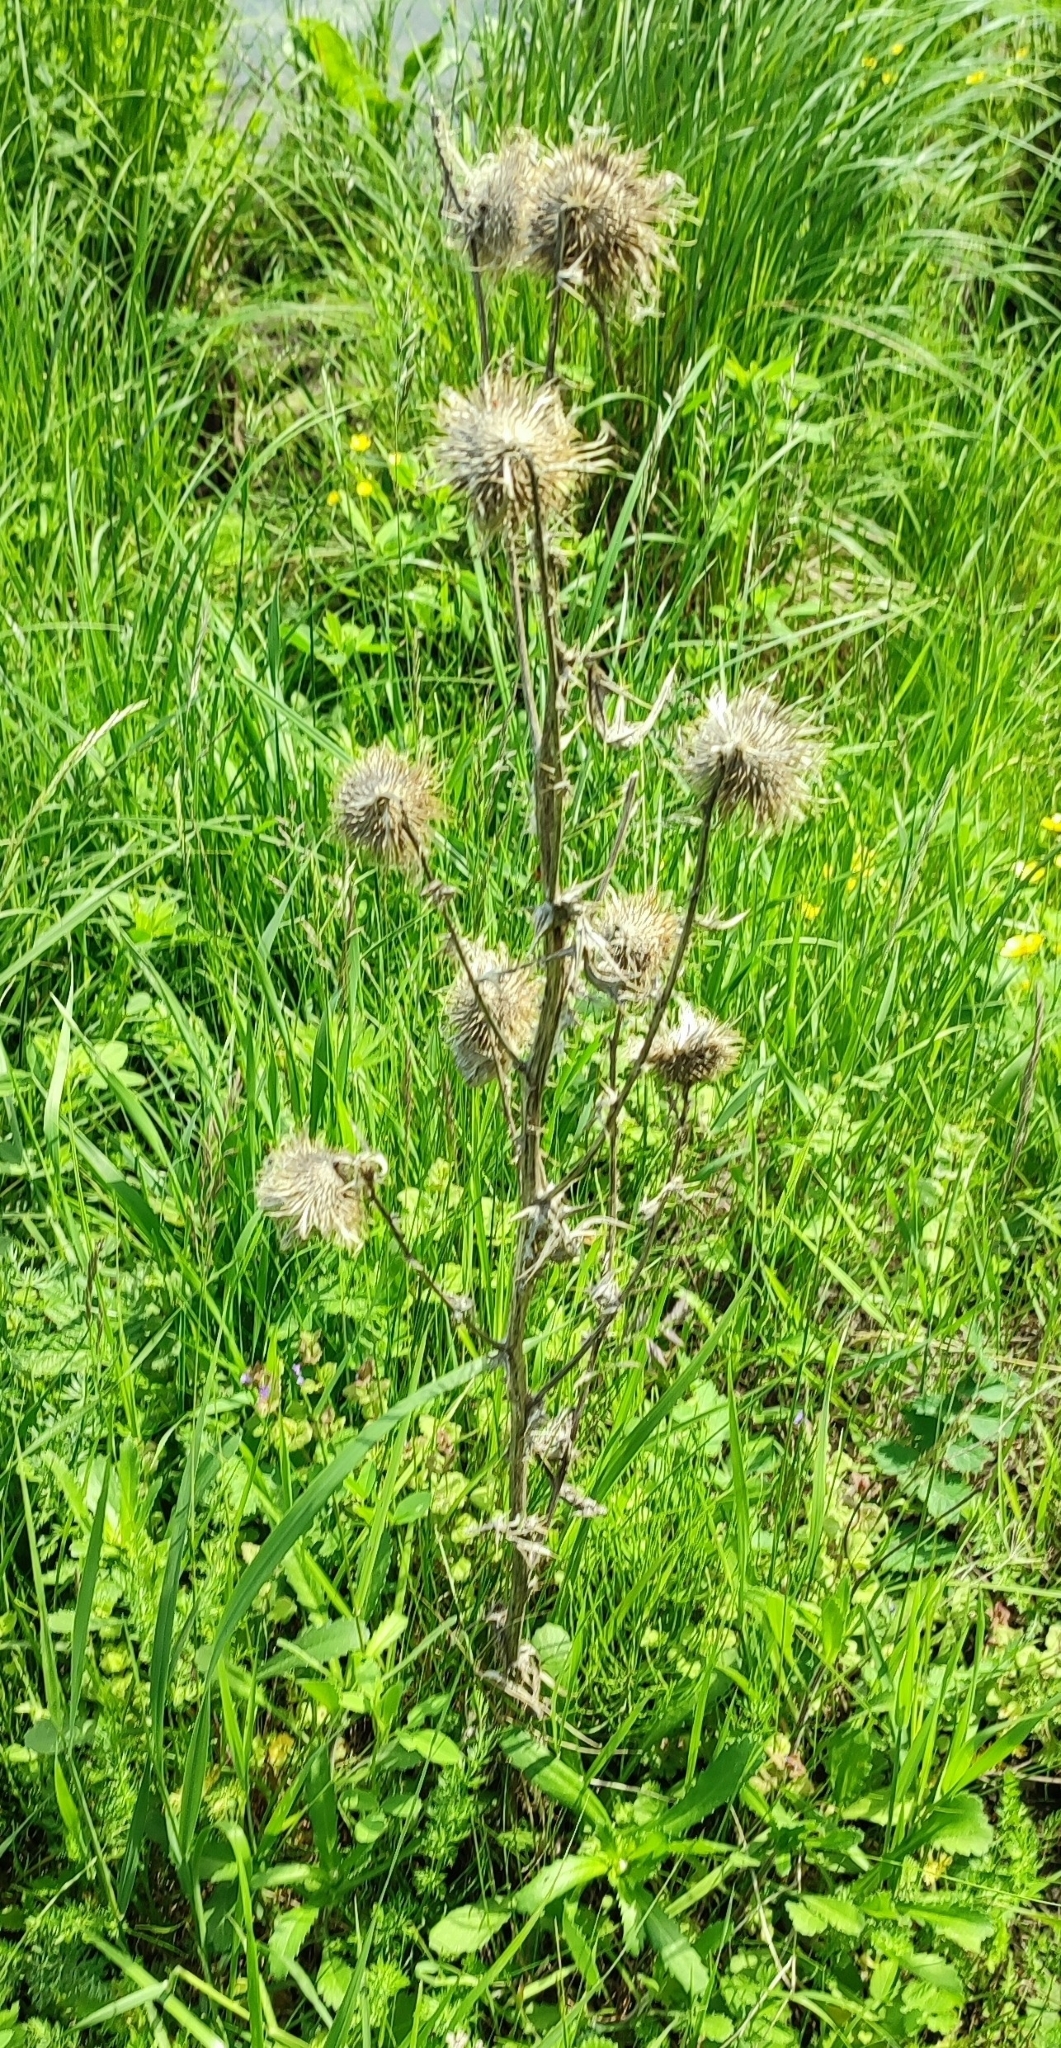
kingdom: Plantae
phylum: Tracheophyta
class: Magnoliopsida
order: Asterales
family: Asteraceae
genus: Cirsium
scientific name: Cirsium vulgare
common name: Bull thistle
